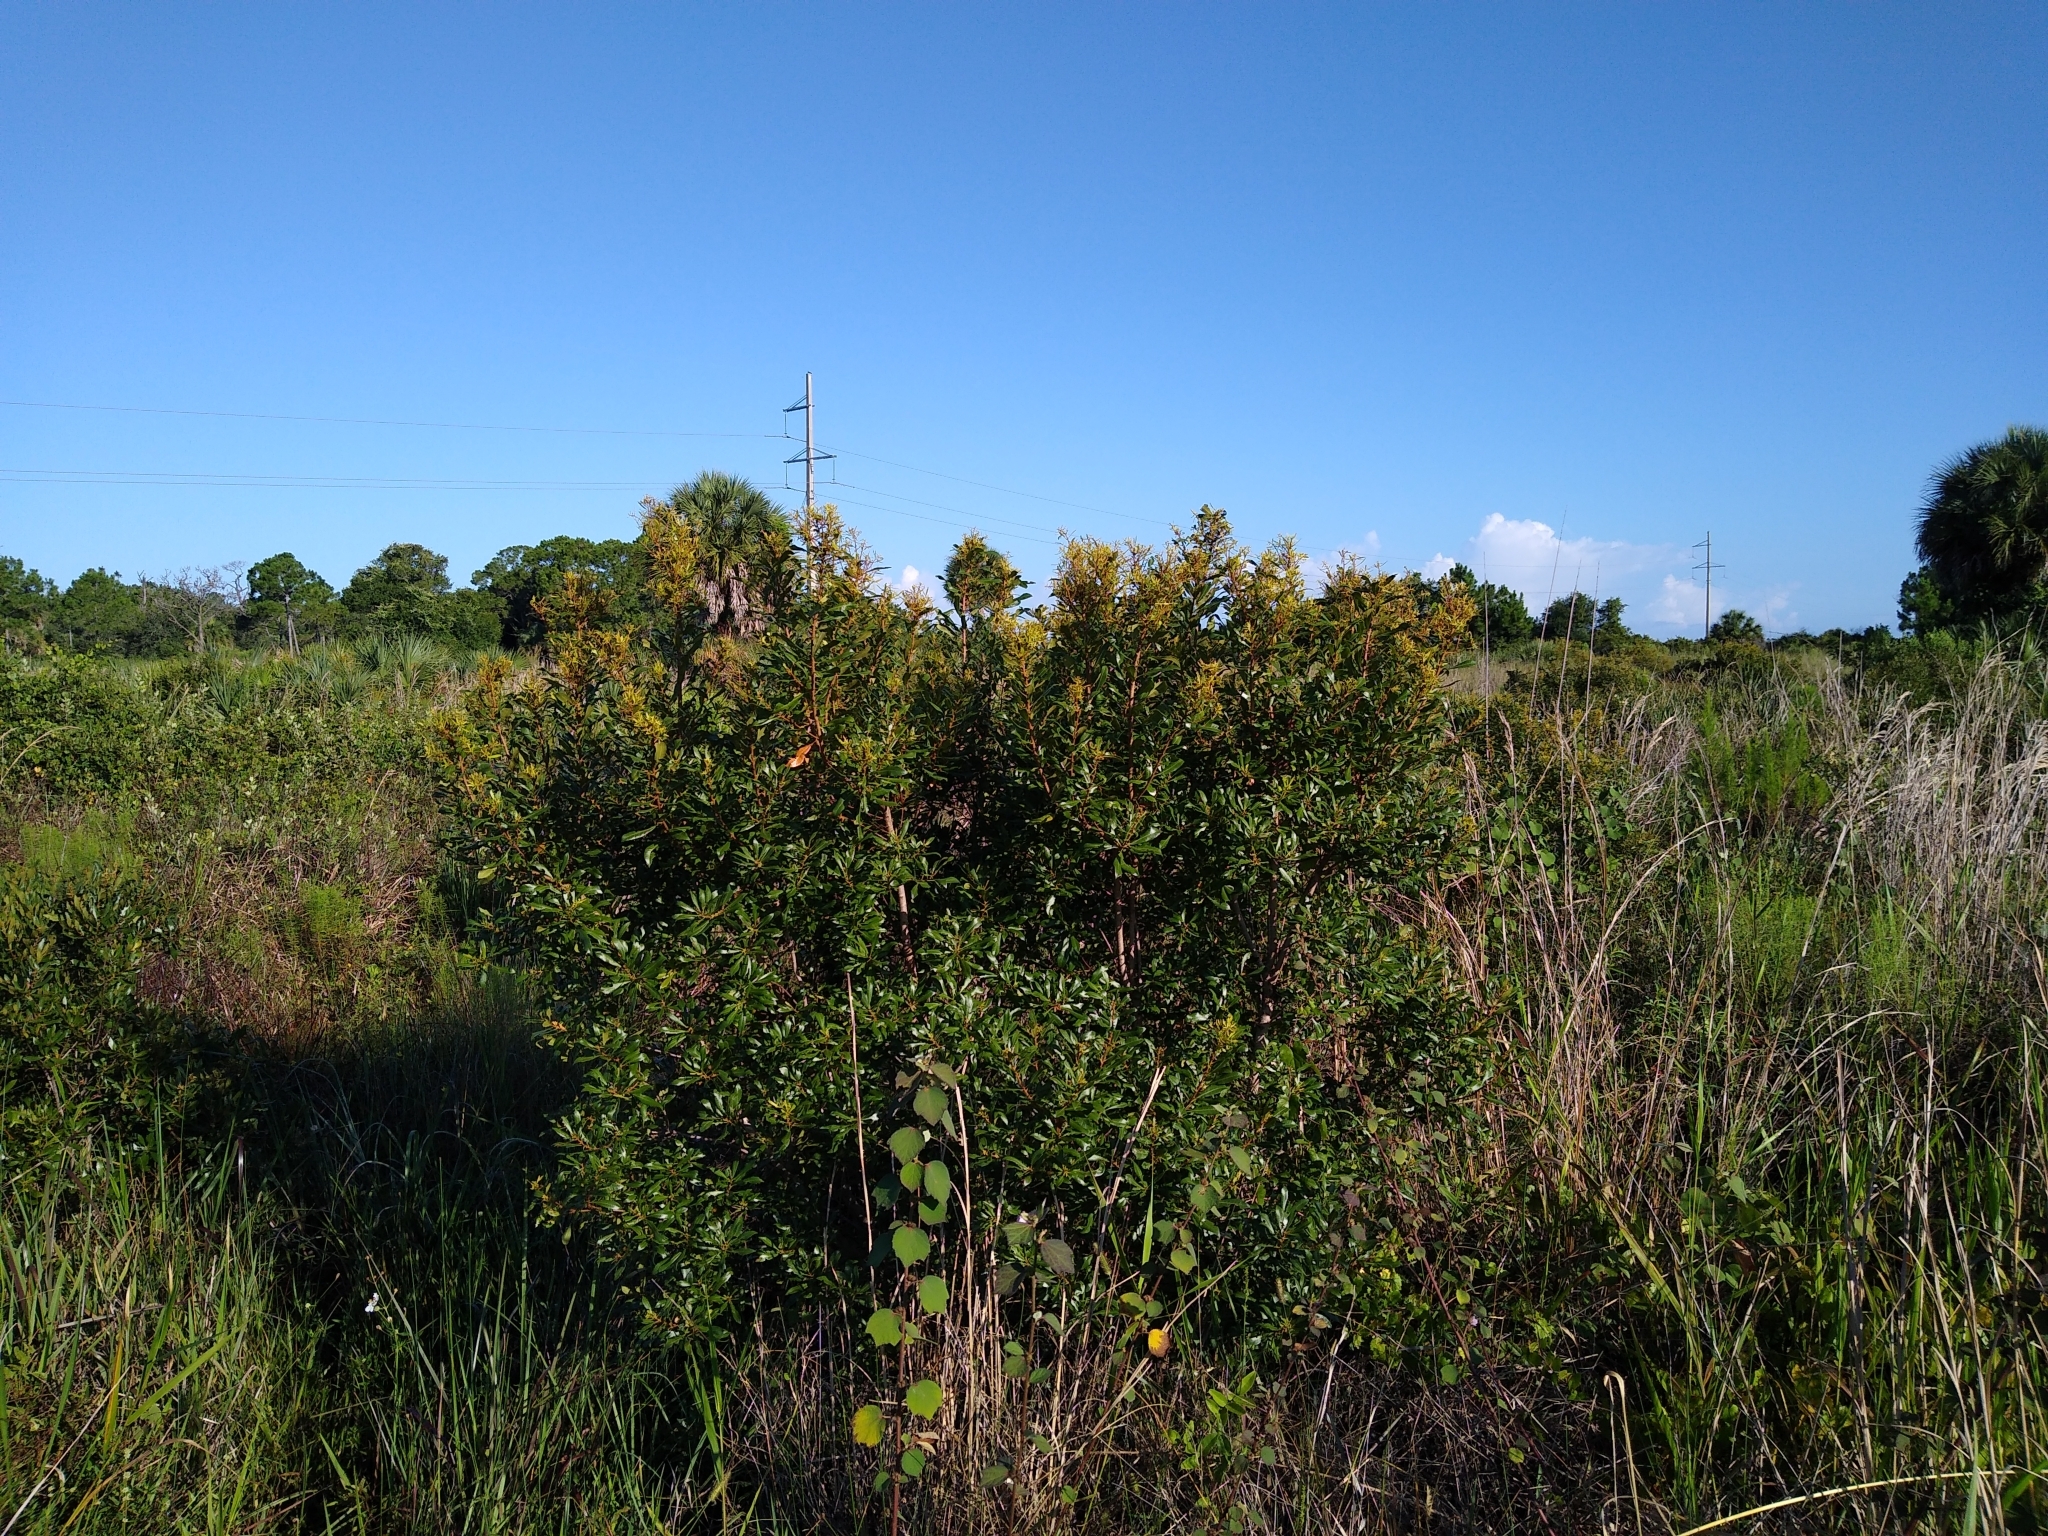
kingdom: Plantae
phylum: Tracheophyta
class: Magnoliopsida
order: Fagales
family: Myricaceae
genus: Morella
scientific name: Morella cerifera
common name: Wax myrtle
